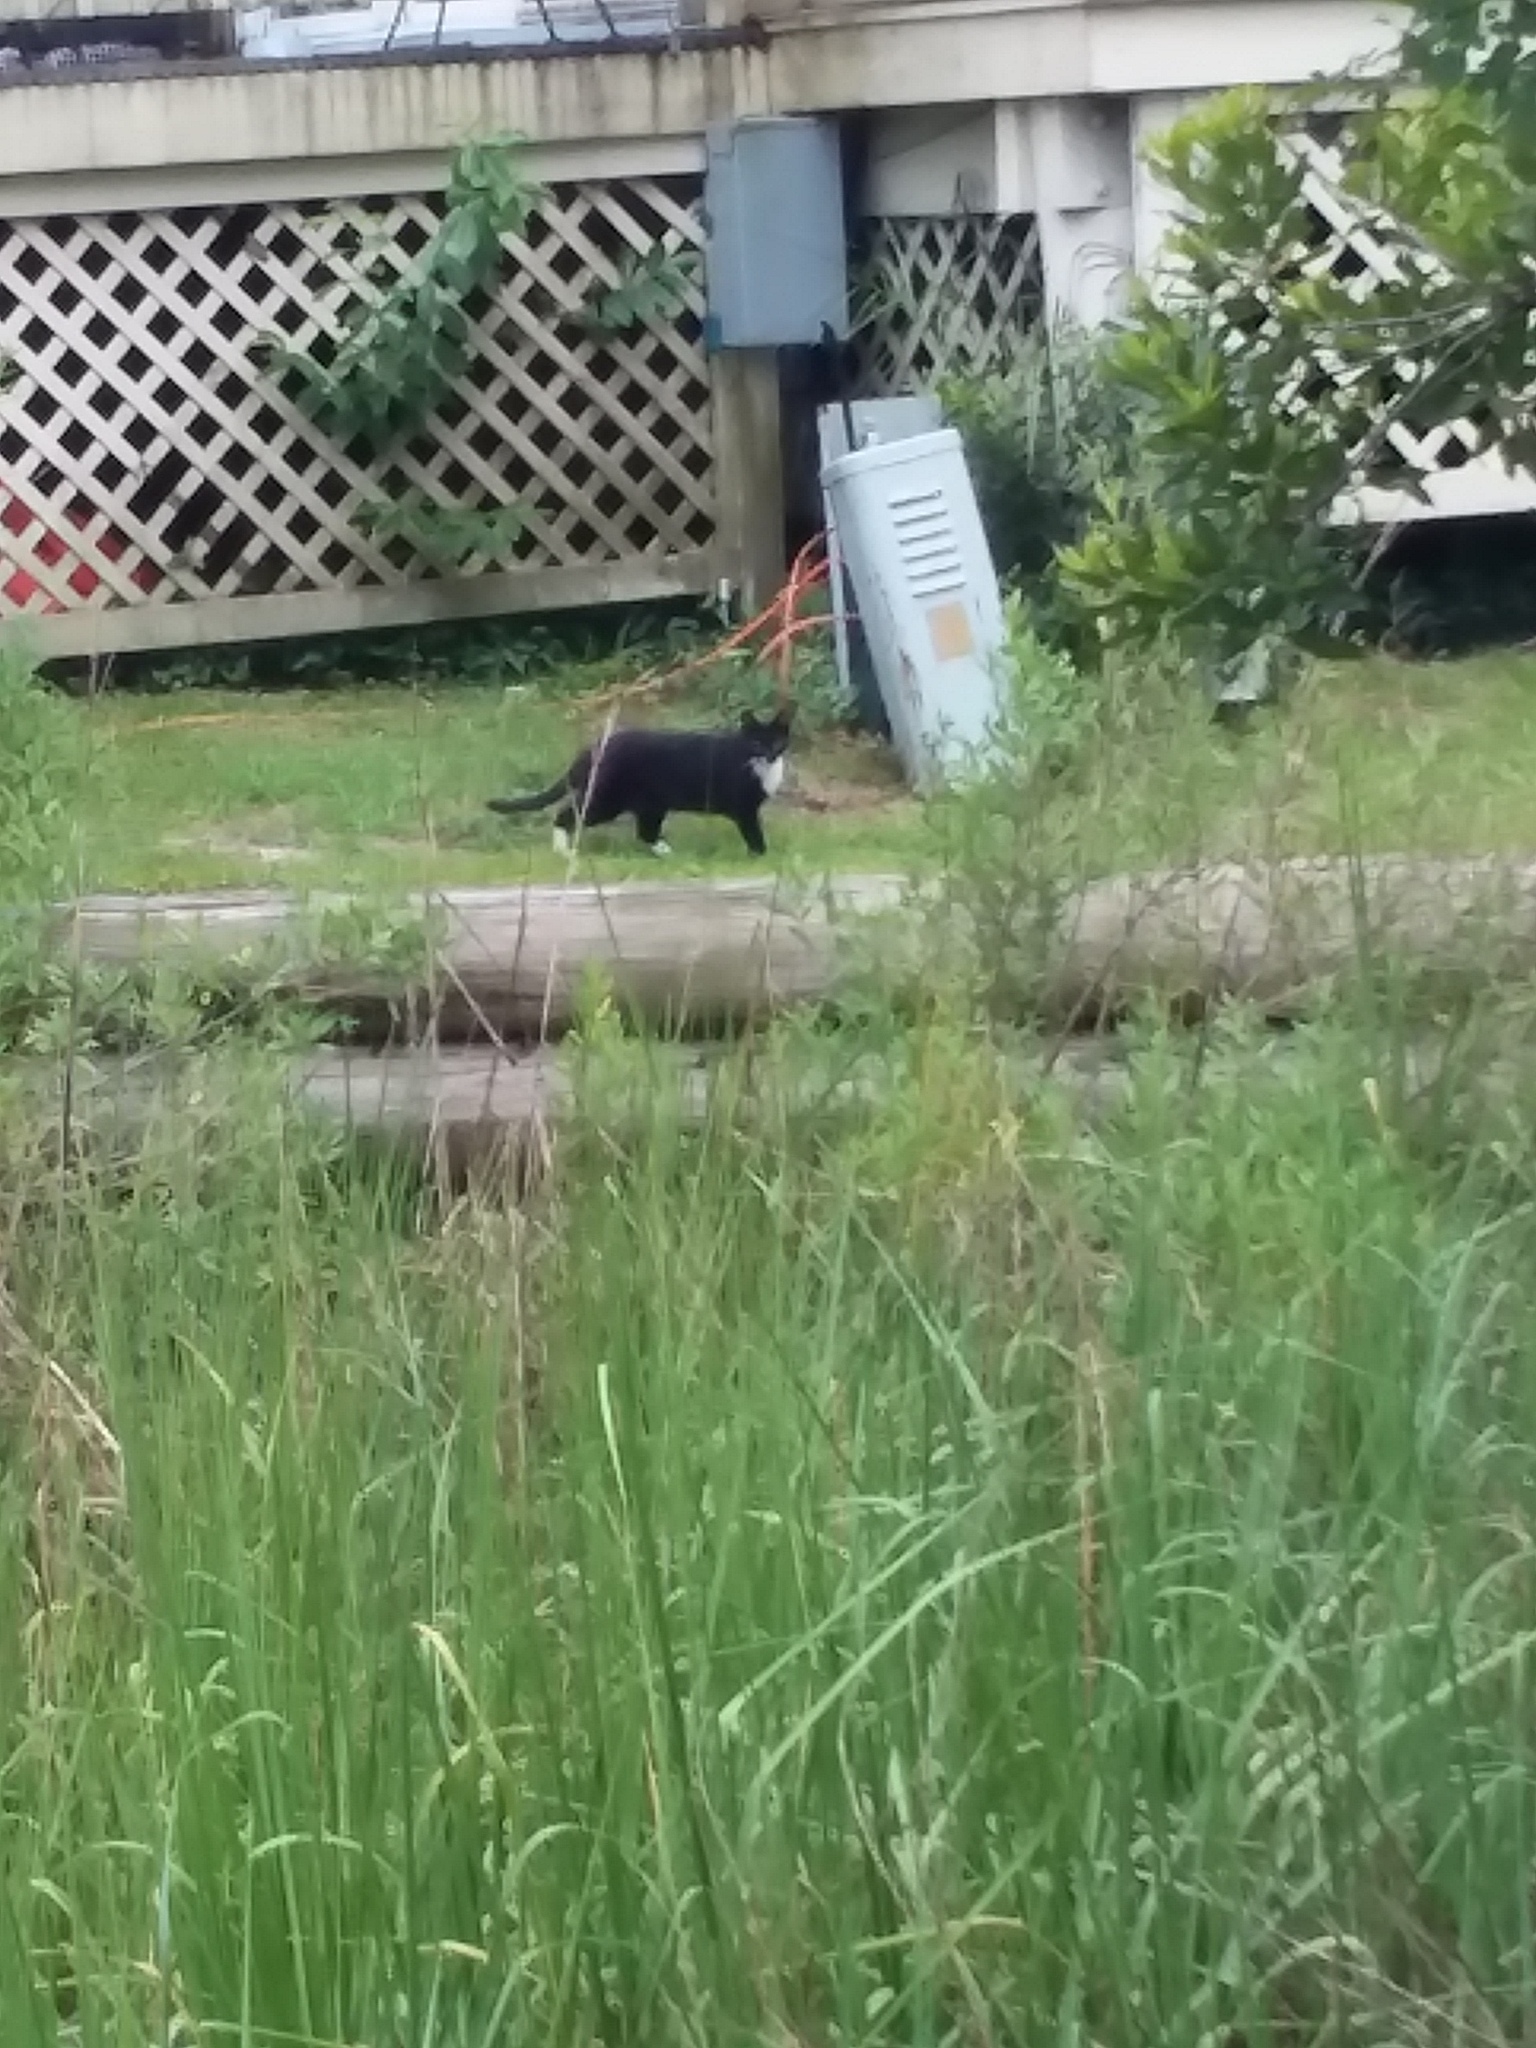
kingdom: Animalia
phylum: Chordata
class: Mammalia
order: Carnivora
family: Felidae
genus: Felis
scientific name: Felis catus
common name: Domestic cat
